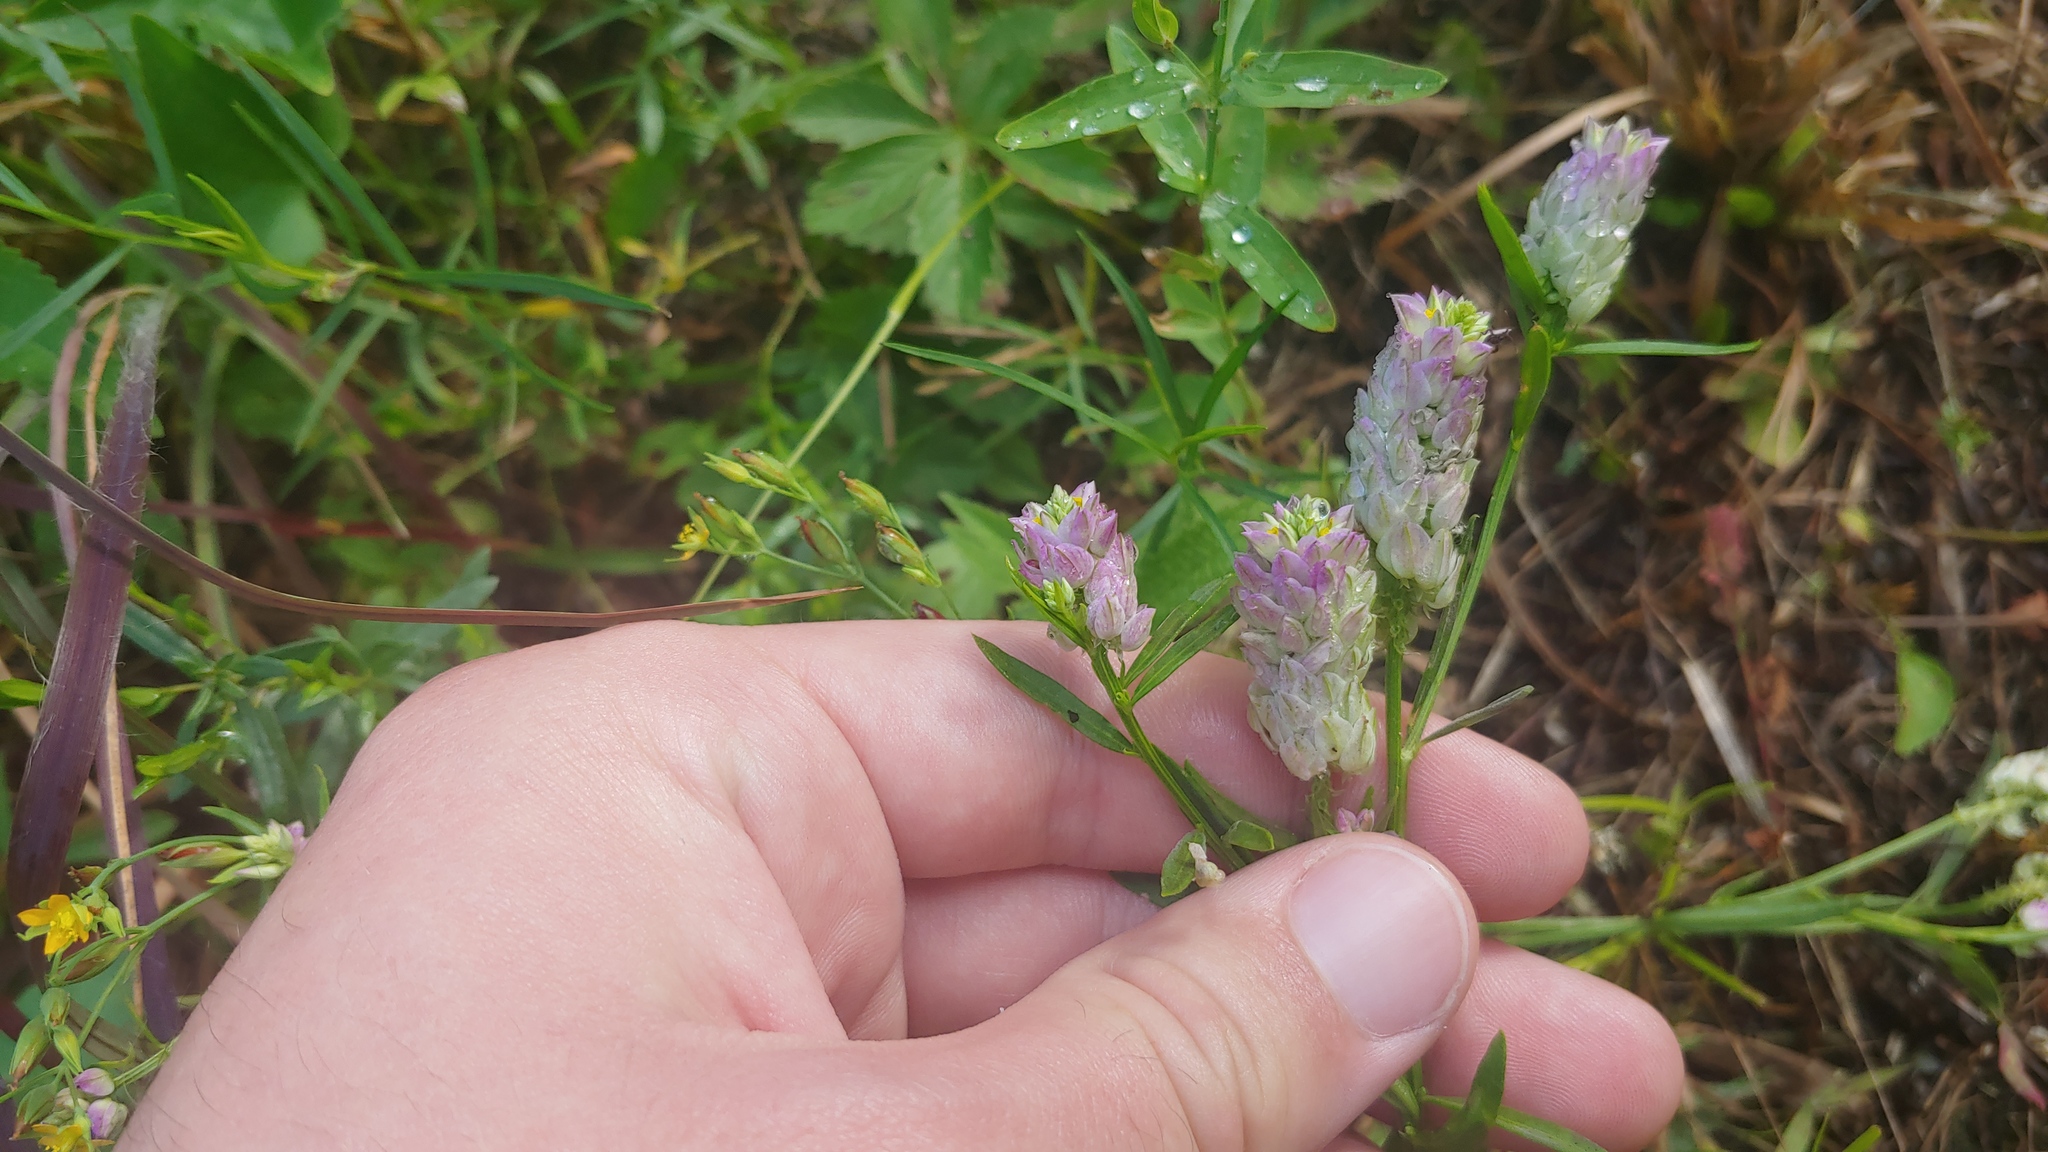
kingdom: Plantae
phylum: Tracheophyta
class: Magnoliopsida
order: Fabales
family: Polygalaceae
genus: Polygala
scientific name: Polygala sanguinea
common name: Blood milkwort
